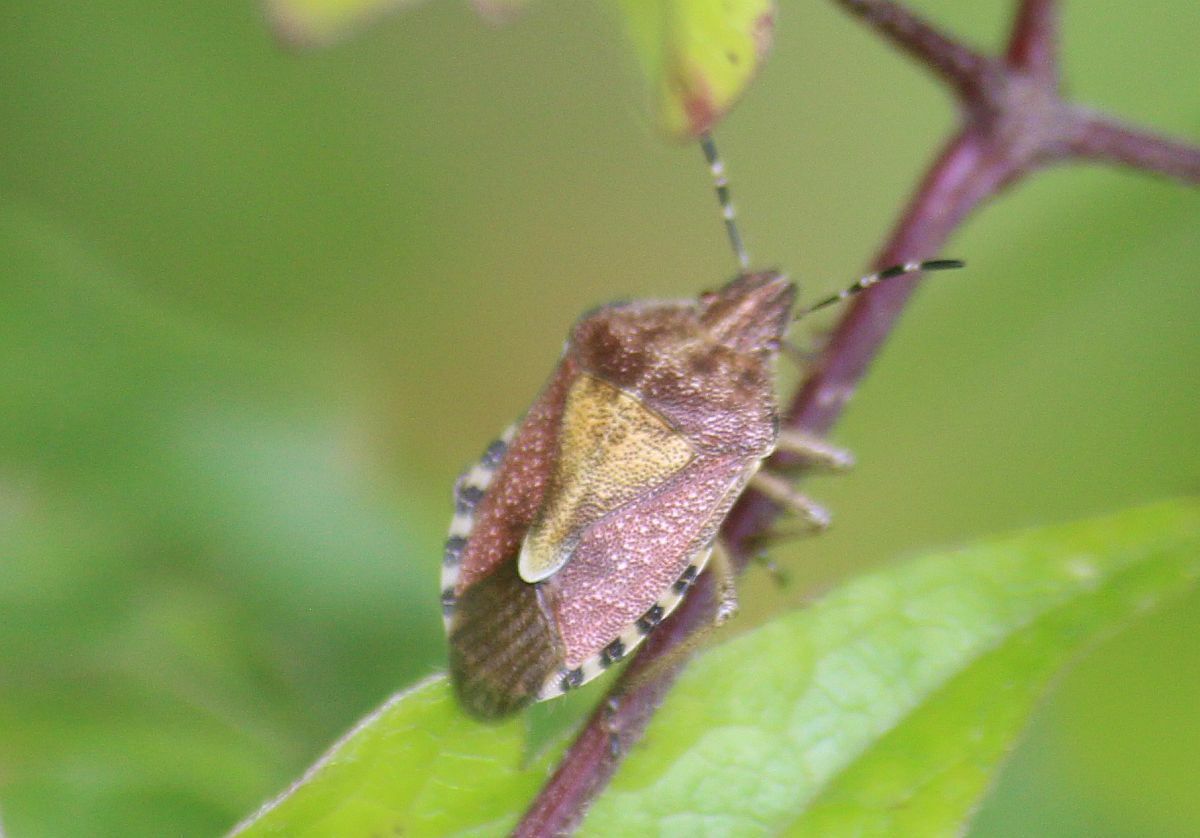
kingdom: Animalia
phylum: Arthropoda
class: Insecta
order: Hemiptera
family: Pentatomidae
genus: Dolycoris
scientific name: Dolycoris baccarum
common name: Sloe bug
